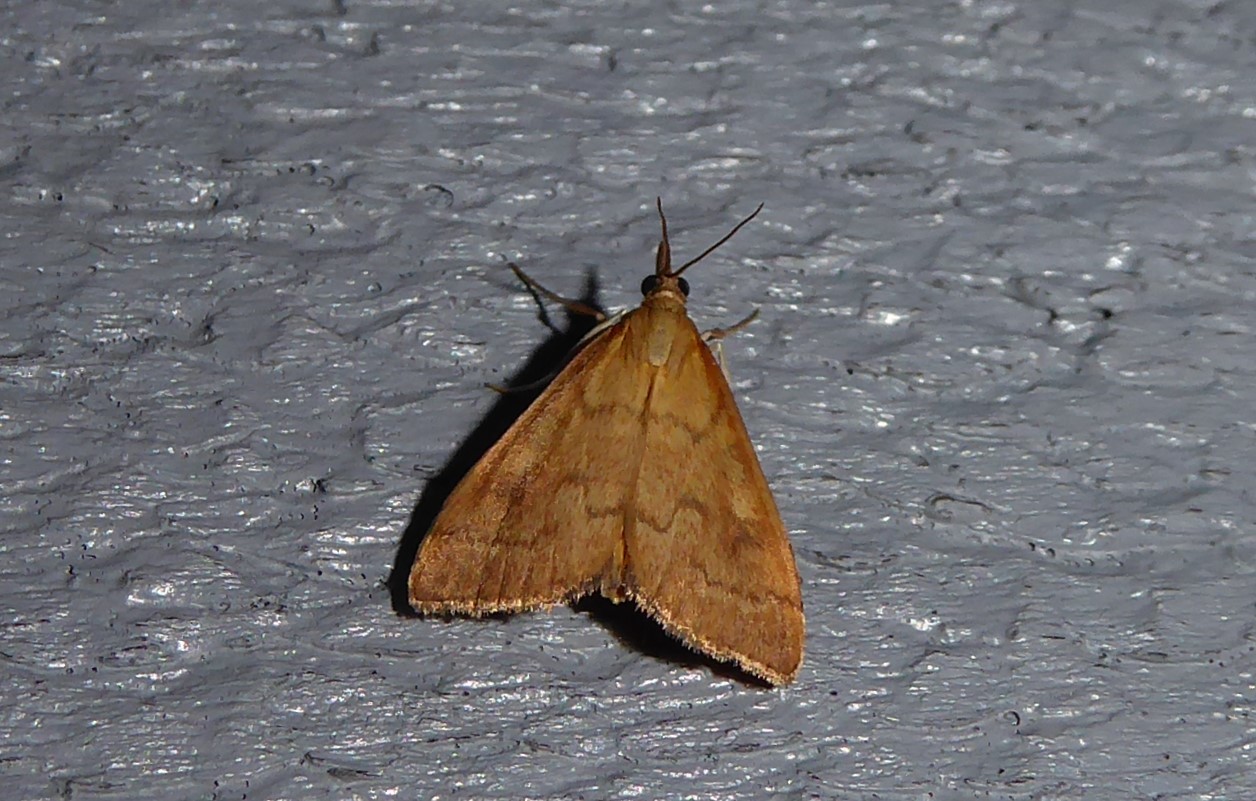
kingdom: Animalia
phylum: Arthropoda
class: Insecta
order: Lepidoptera
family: Crambidae
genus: Udea
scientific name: Udea Mnesictena flavidalis
